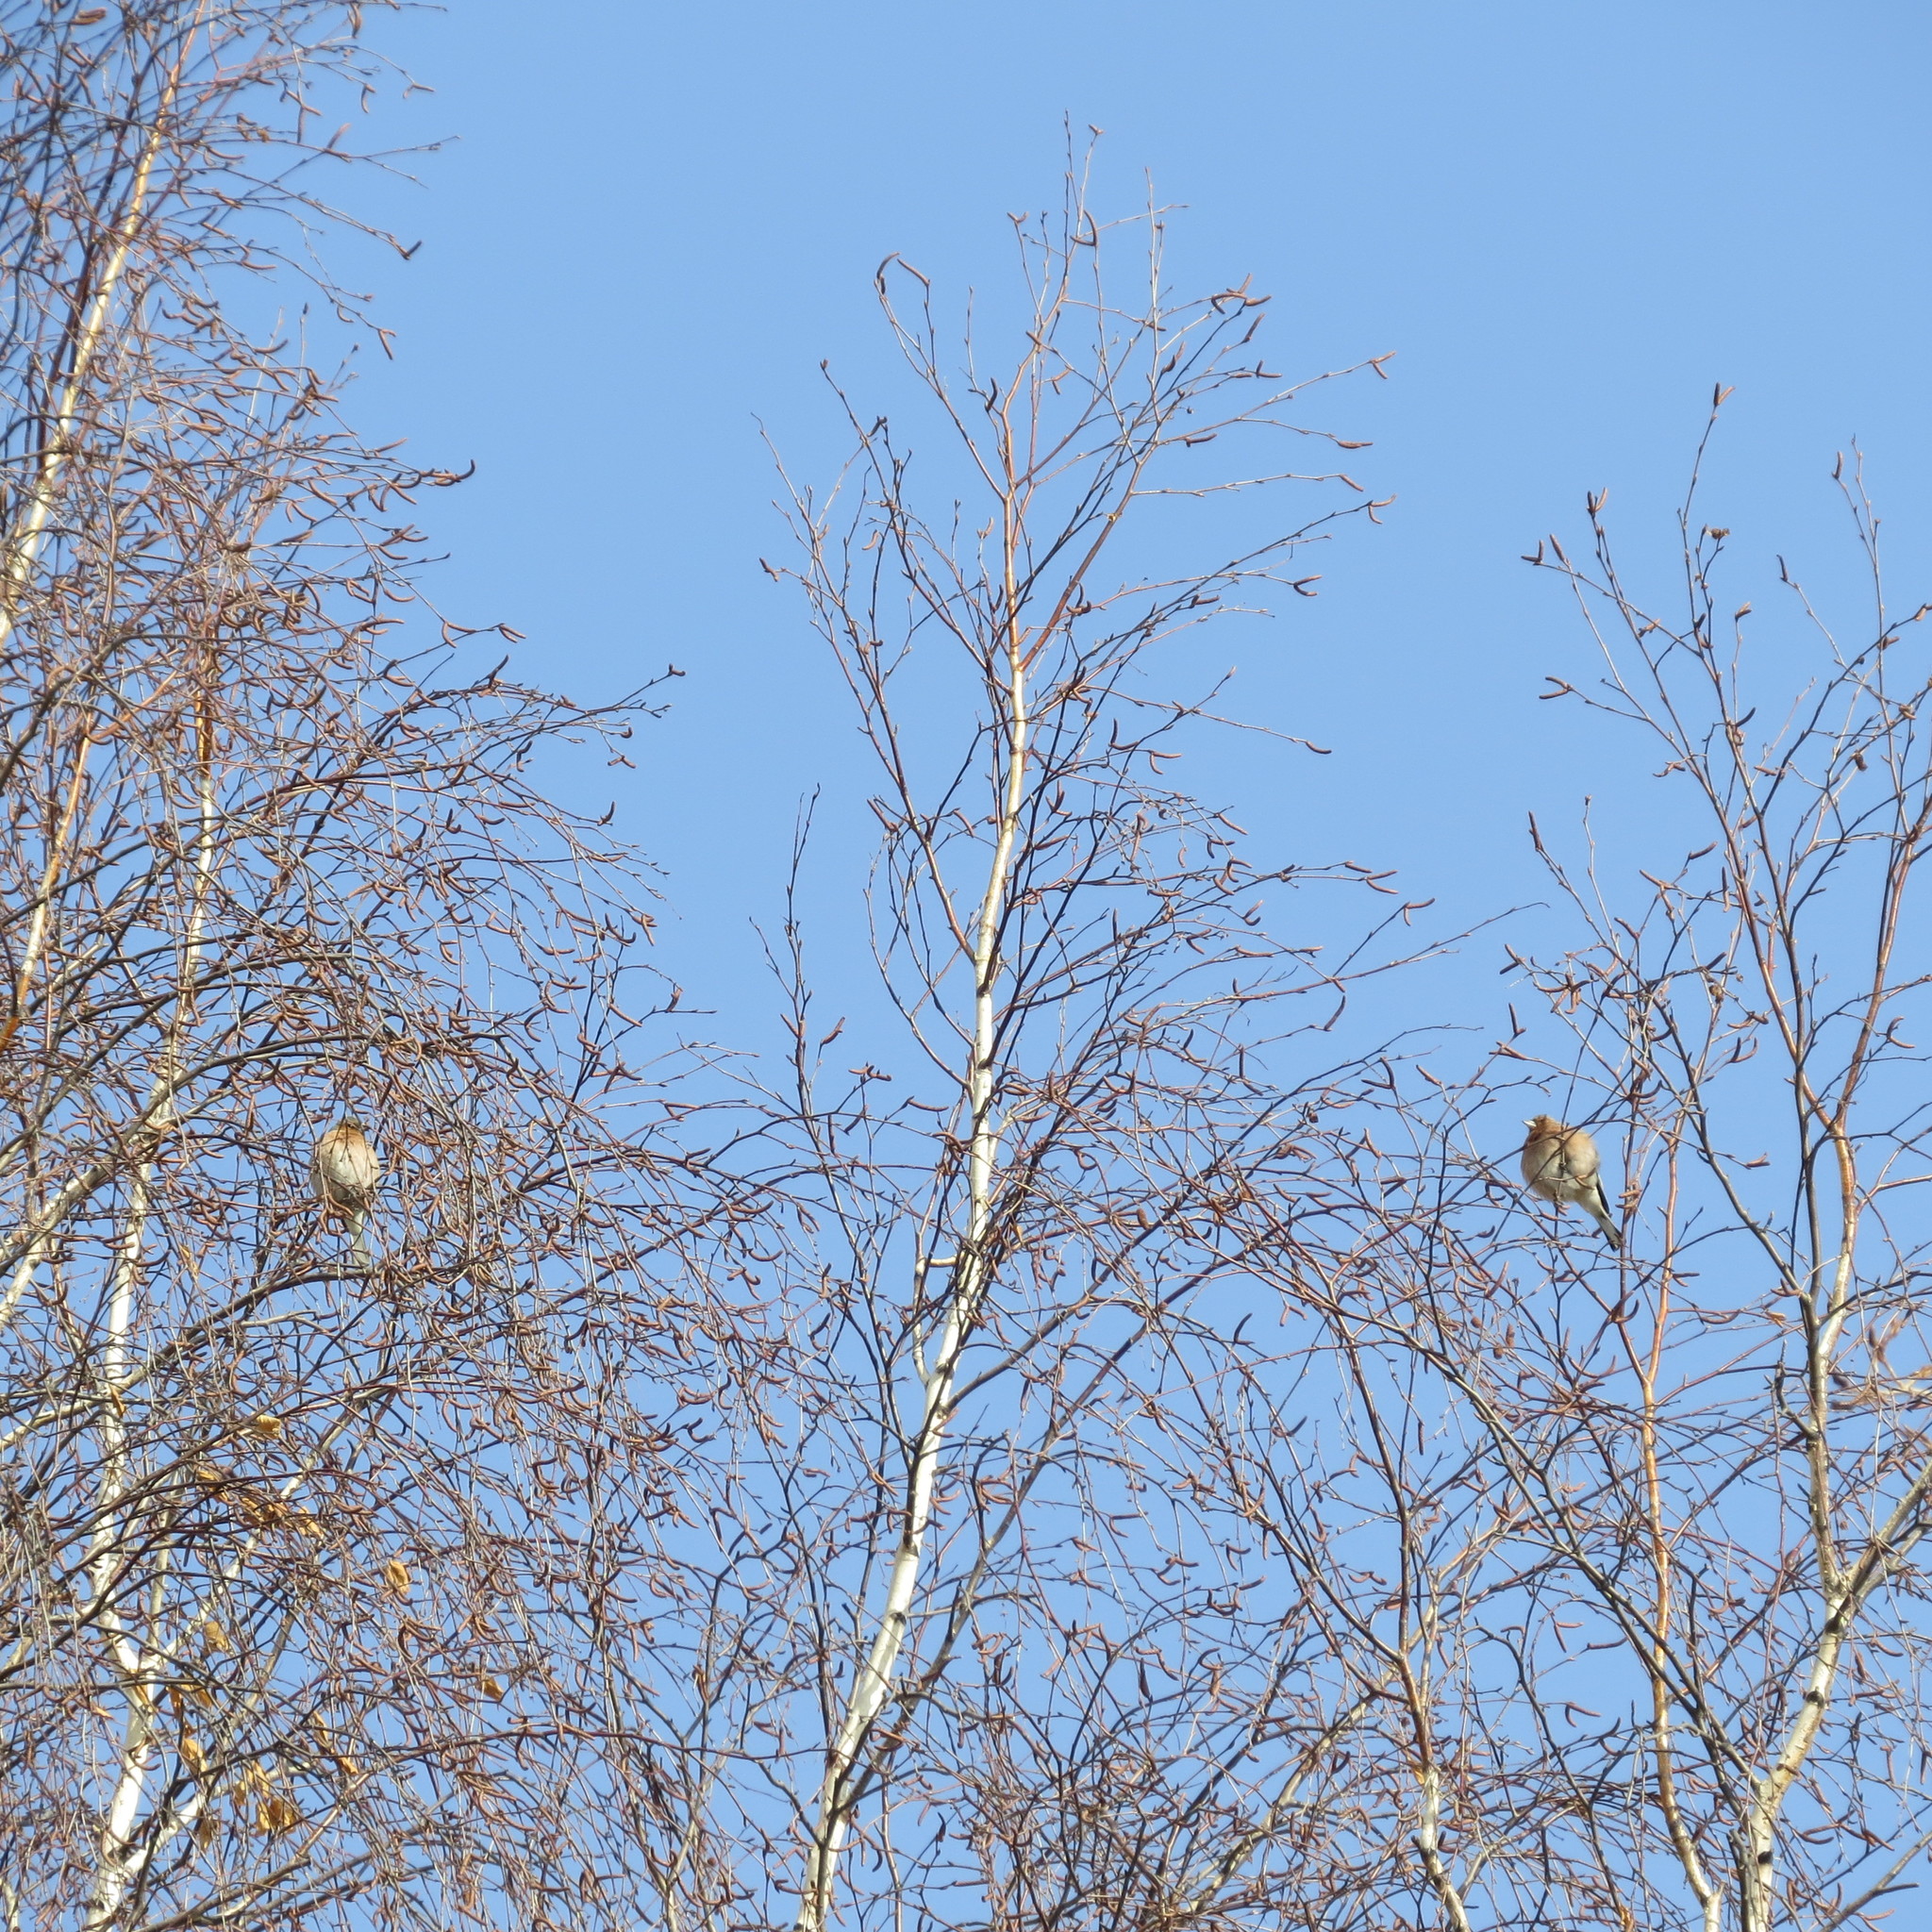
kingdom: Animalia
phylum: Chordata
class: Aves
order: Passeriformes
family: Fringillidae
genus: Fringilla
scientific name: Fringilla coelebs
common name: Common chaffinch
